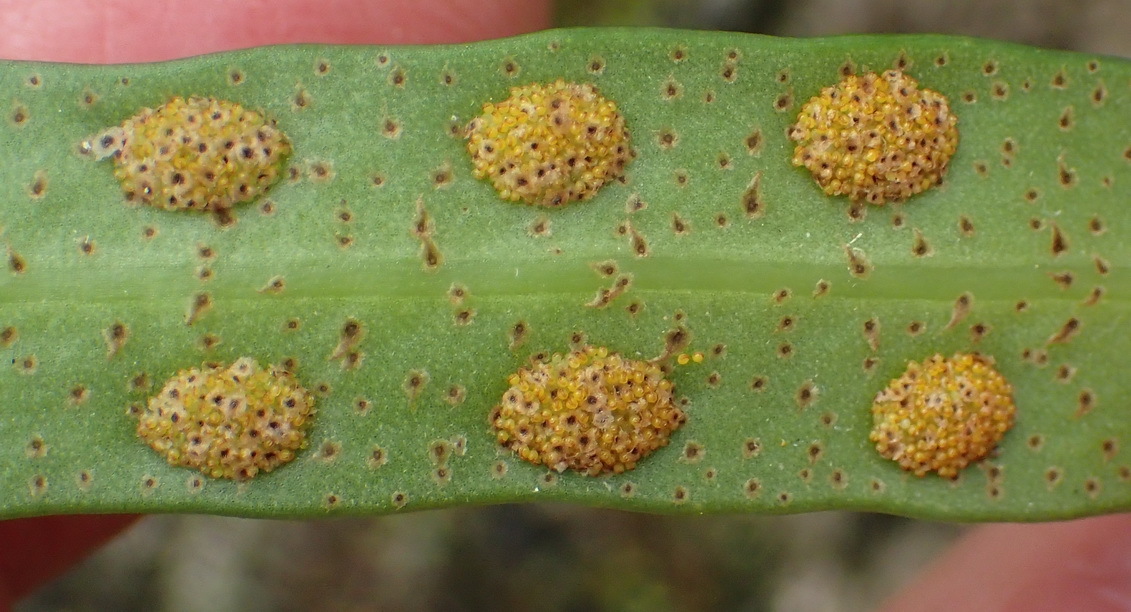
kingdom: Plantae
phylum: Tracheophyta
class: Polypodiopsida
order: Polypodiales
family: Polypodiaceae
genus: Pleopeltis
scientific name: Pleopeltis macrocarpa
